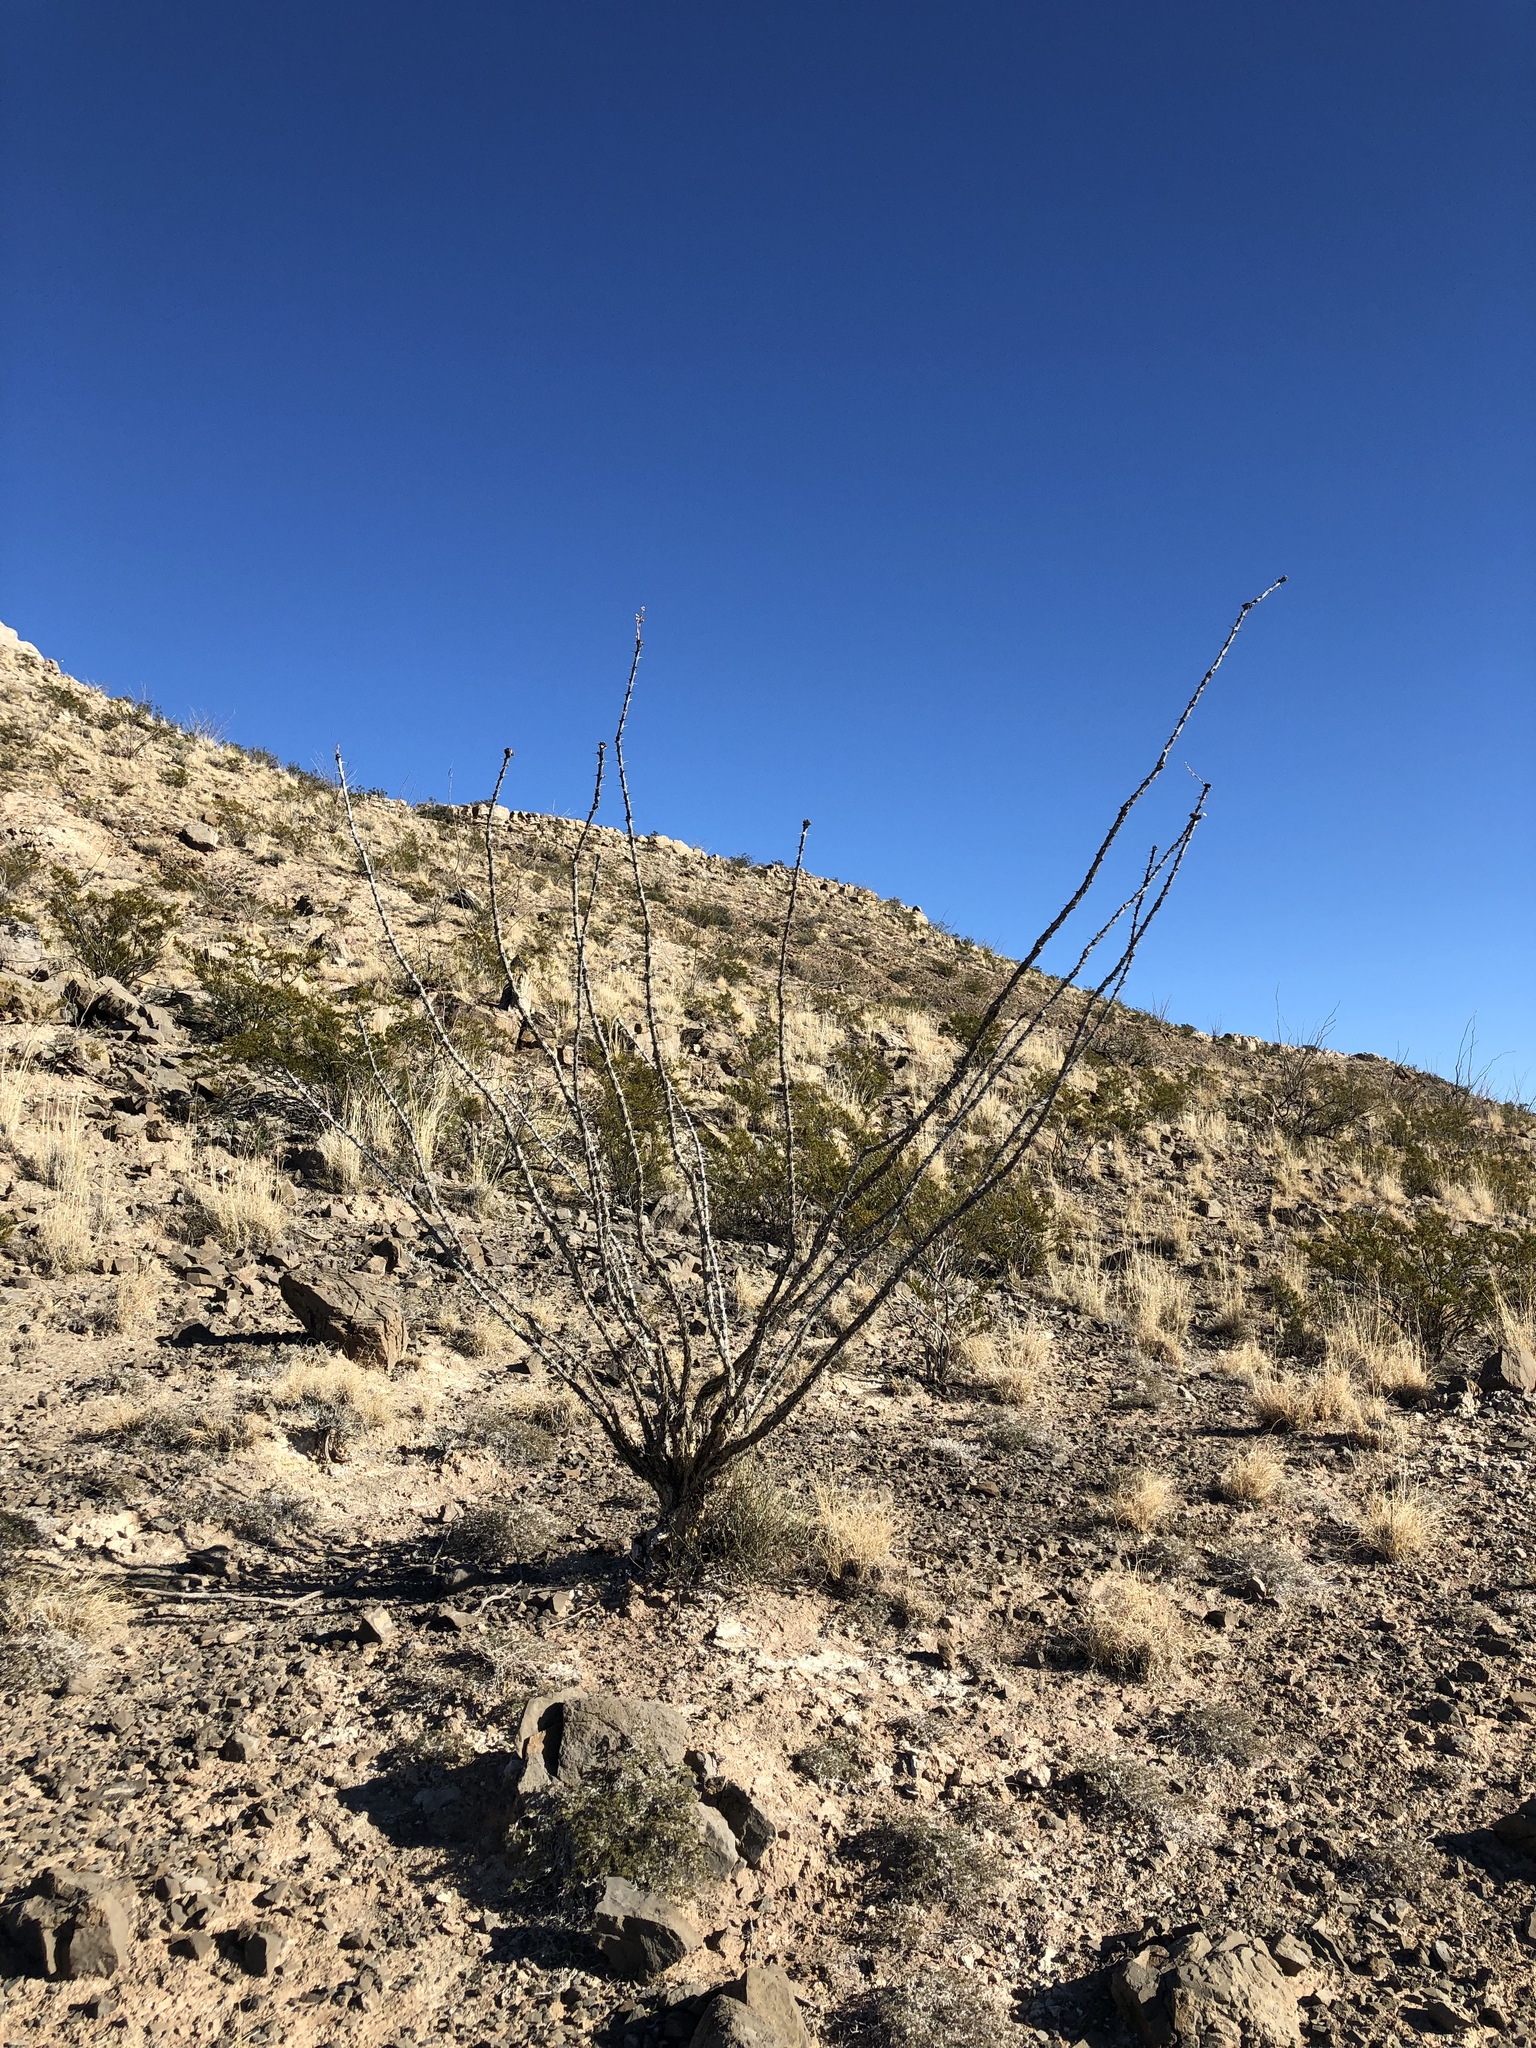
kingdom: Plantae
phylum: Tracheophyta
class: Magnoliopsida
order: Ericales
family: Fouquieriaceae
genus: Fouquieria
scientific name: Fouquieria splendens
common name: Vine-cactus
